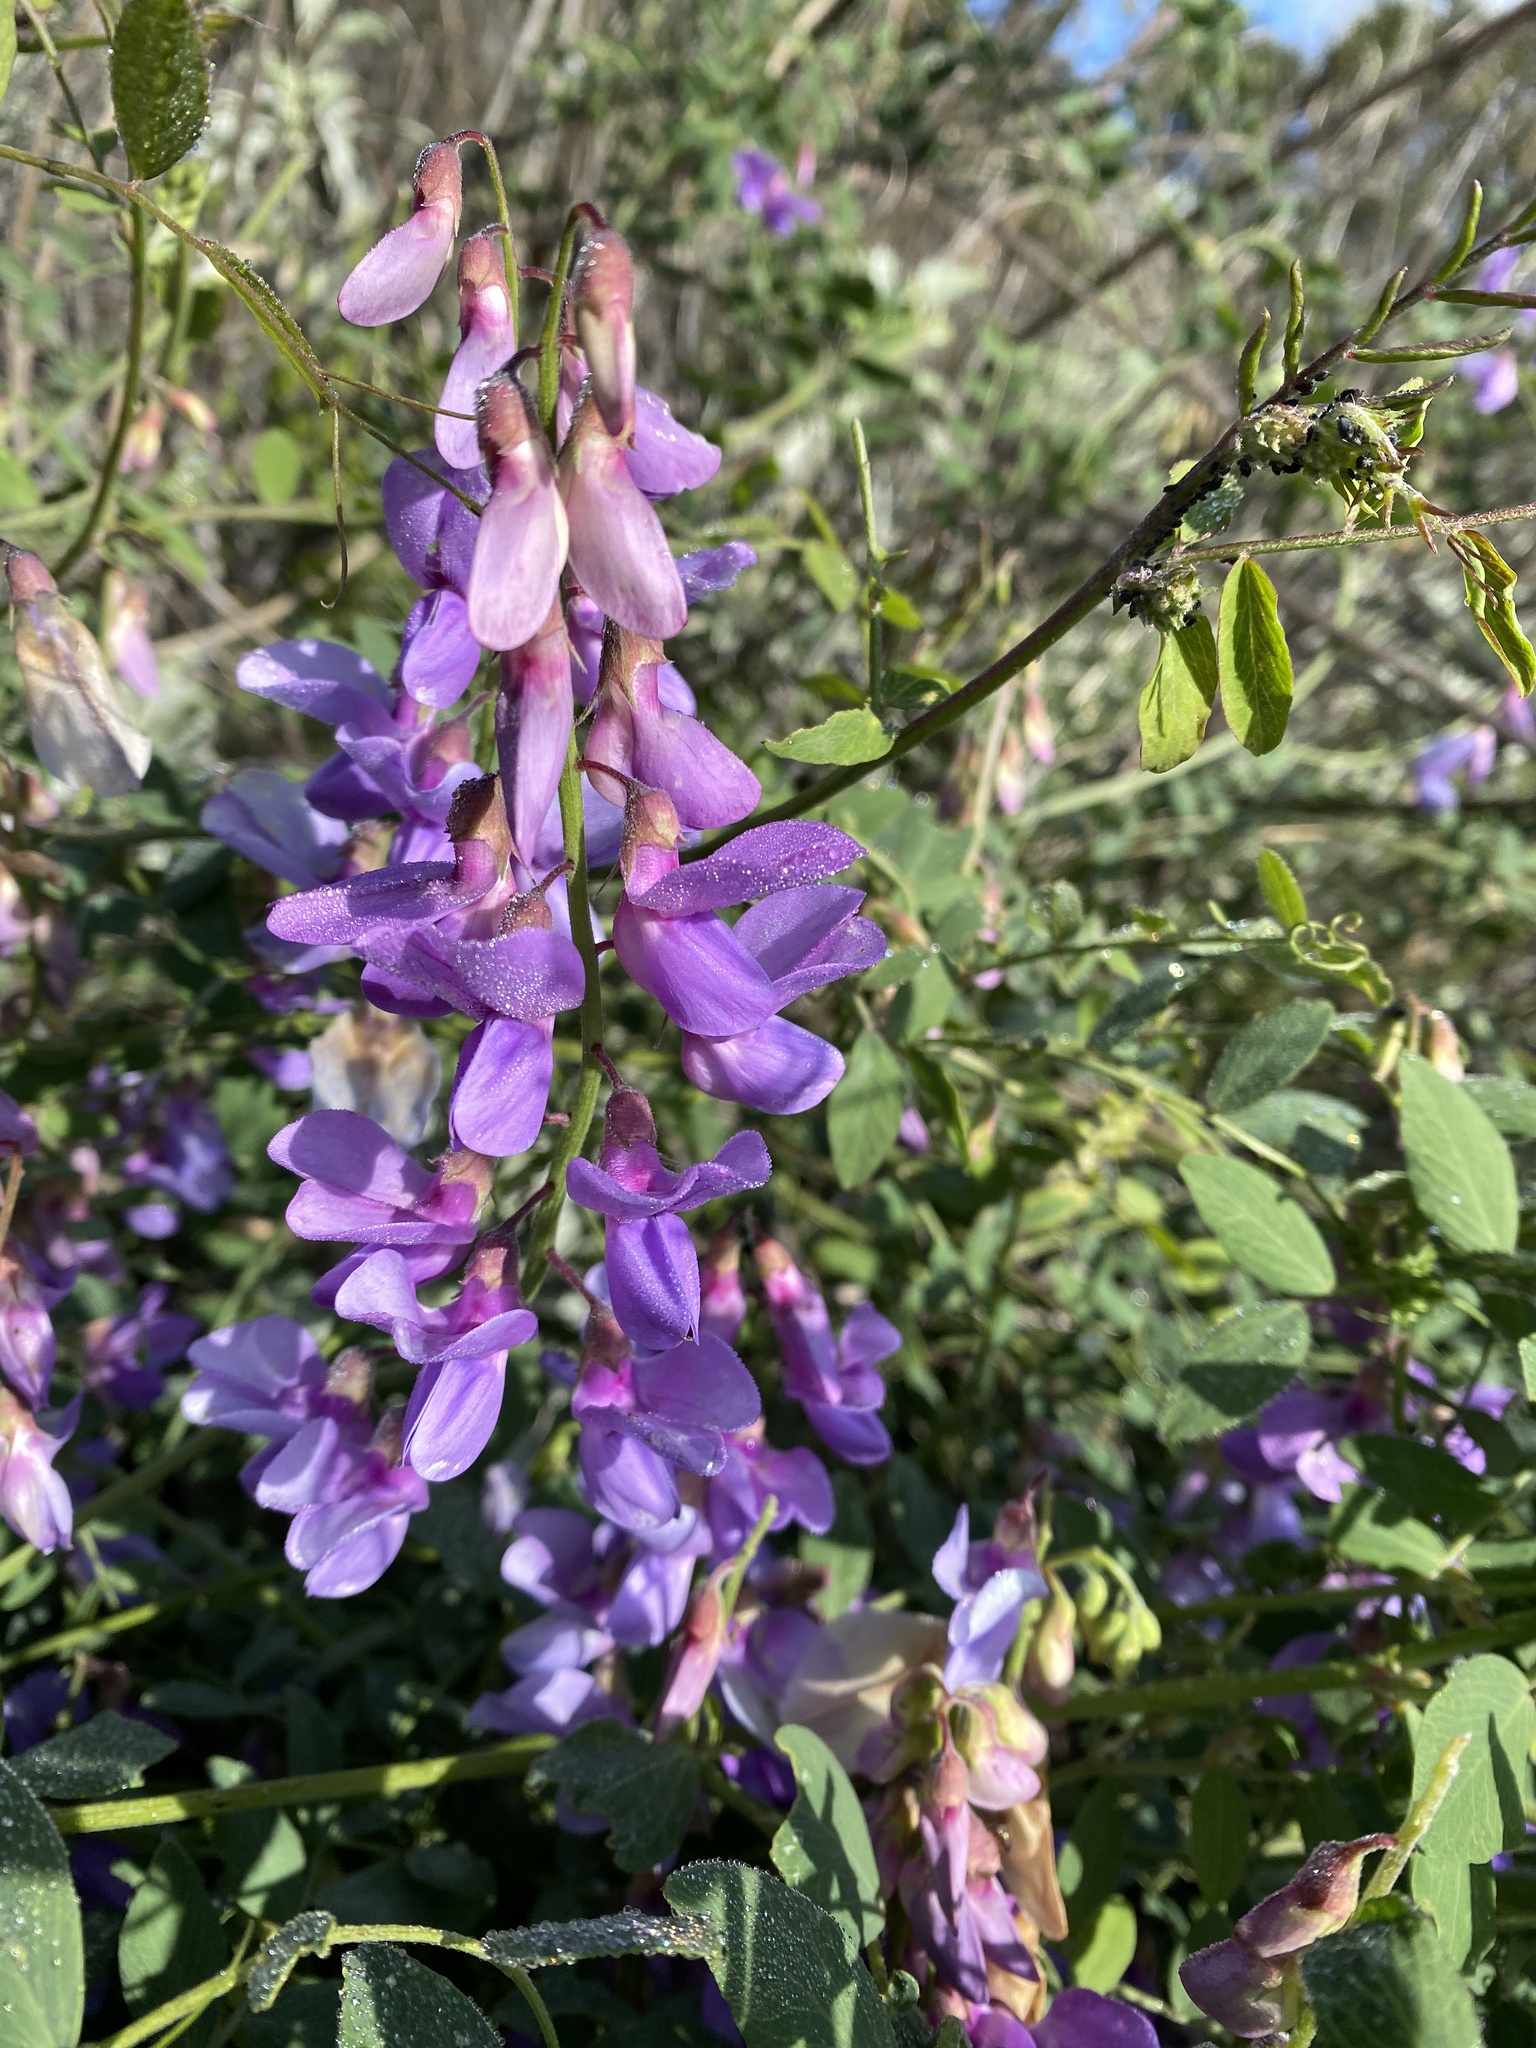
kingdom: Plantae
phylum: Tracheophyta
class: Magnoliopsida
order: Fabales
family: Fabaceae
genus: Lathyrus
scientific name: Lathyrus vestitus
